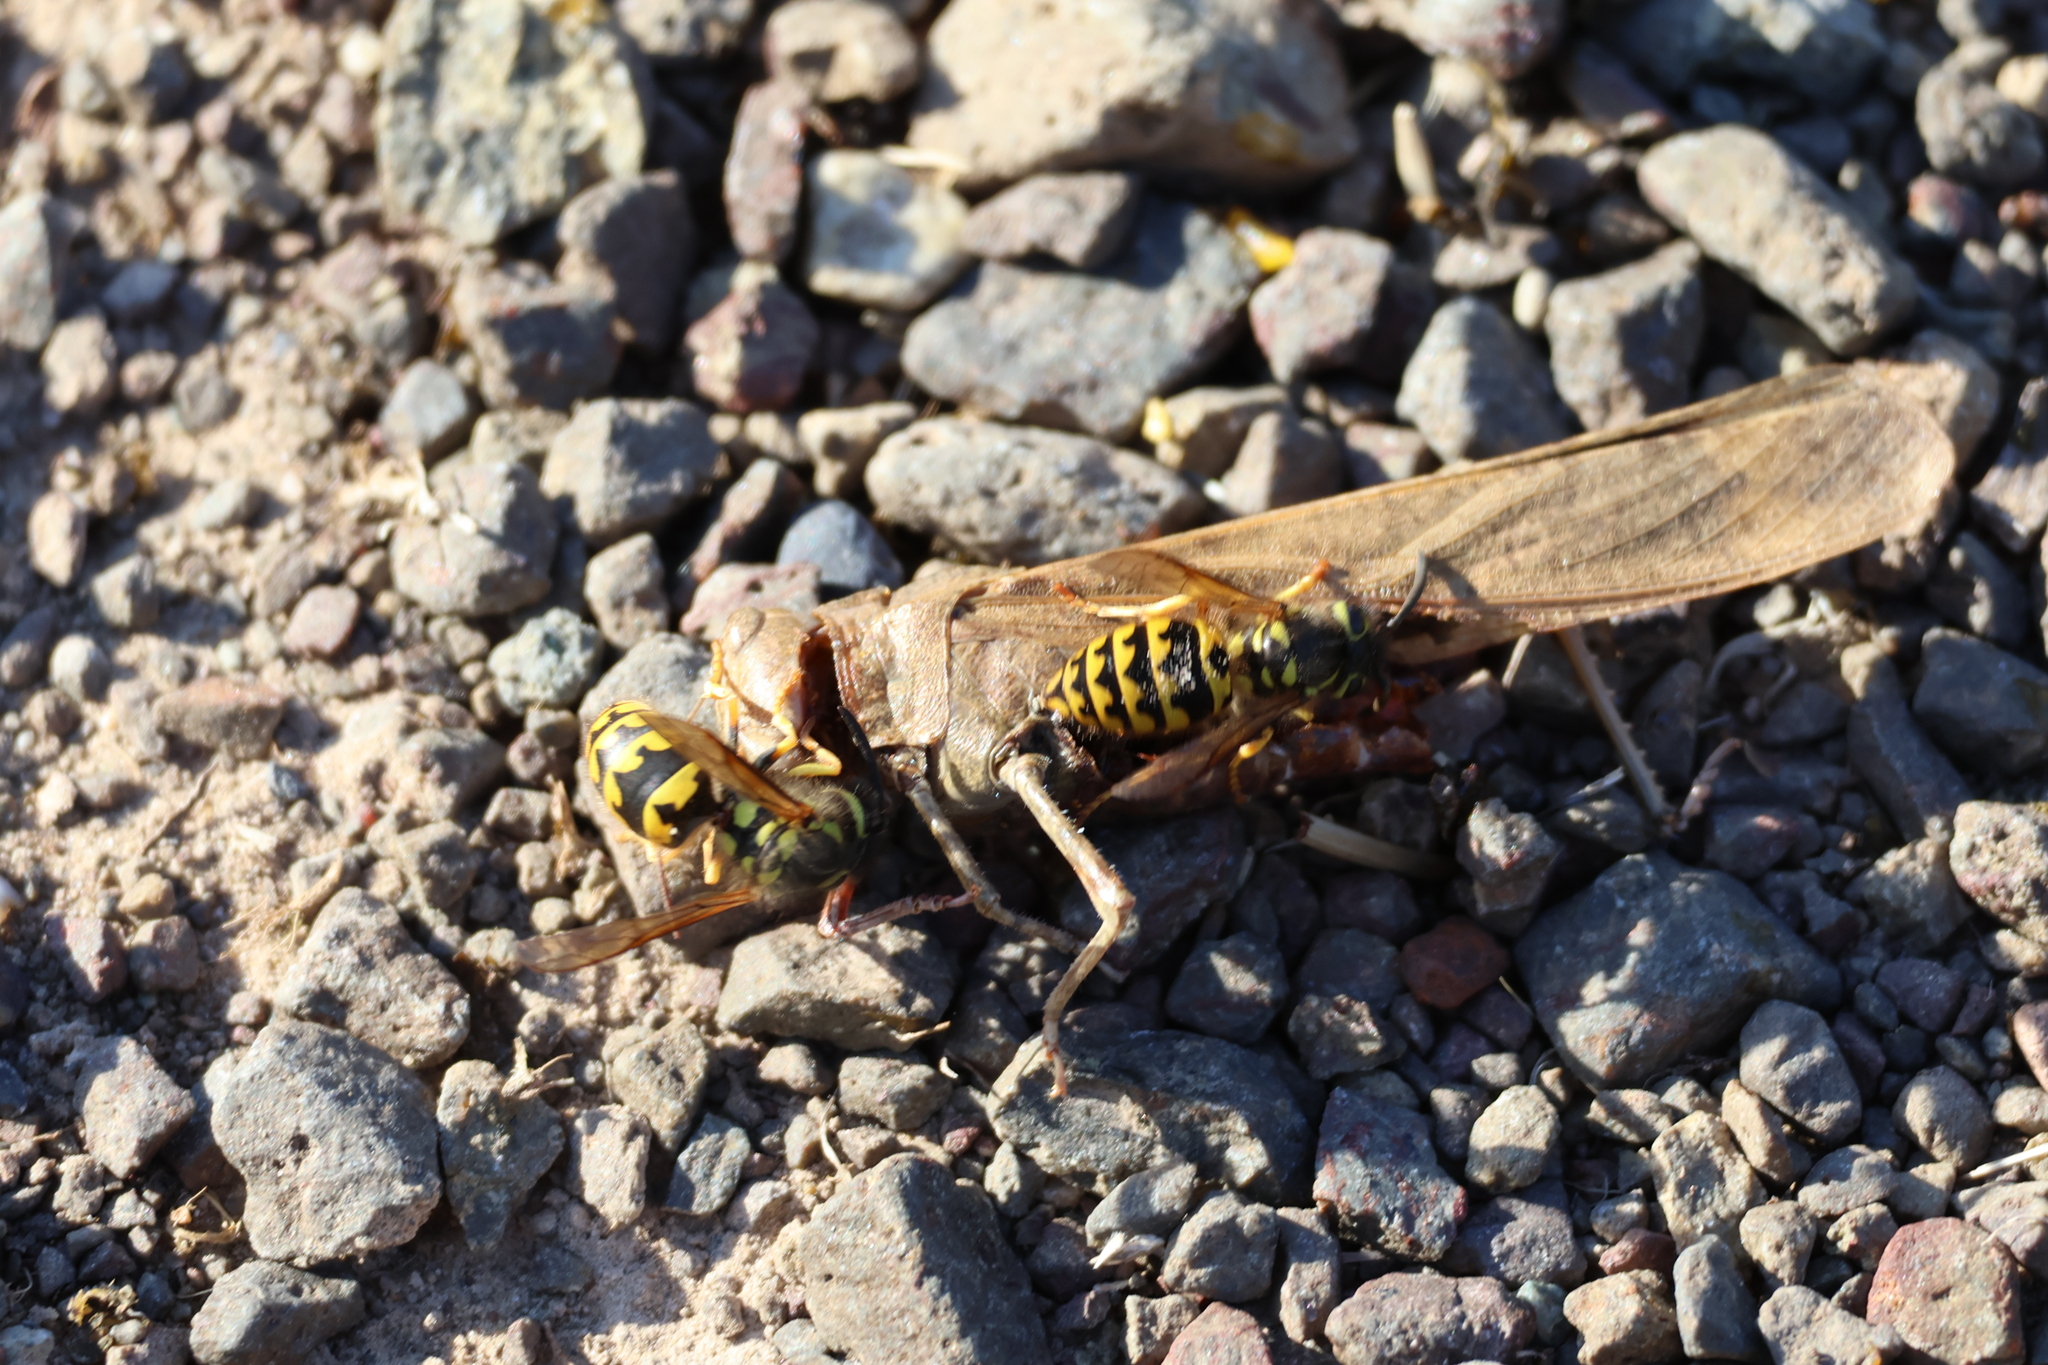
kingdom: Animalia
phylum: Arthropoda
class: Insecta
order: Hymenoptera
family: Vespidae
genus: Vespula
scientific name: Vespula pensylvanica
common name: Western yellowjacket
